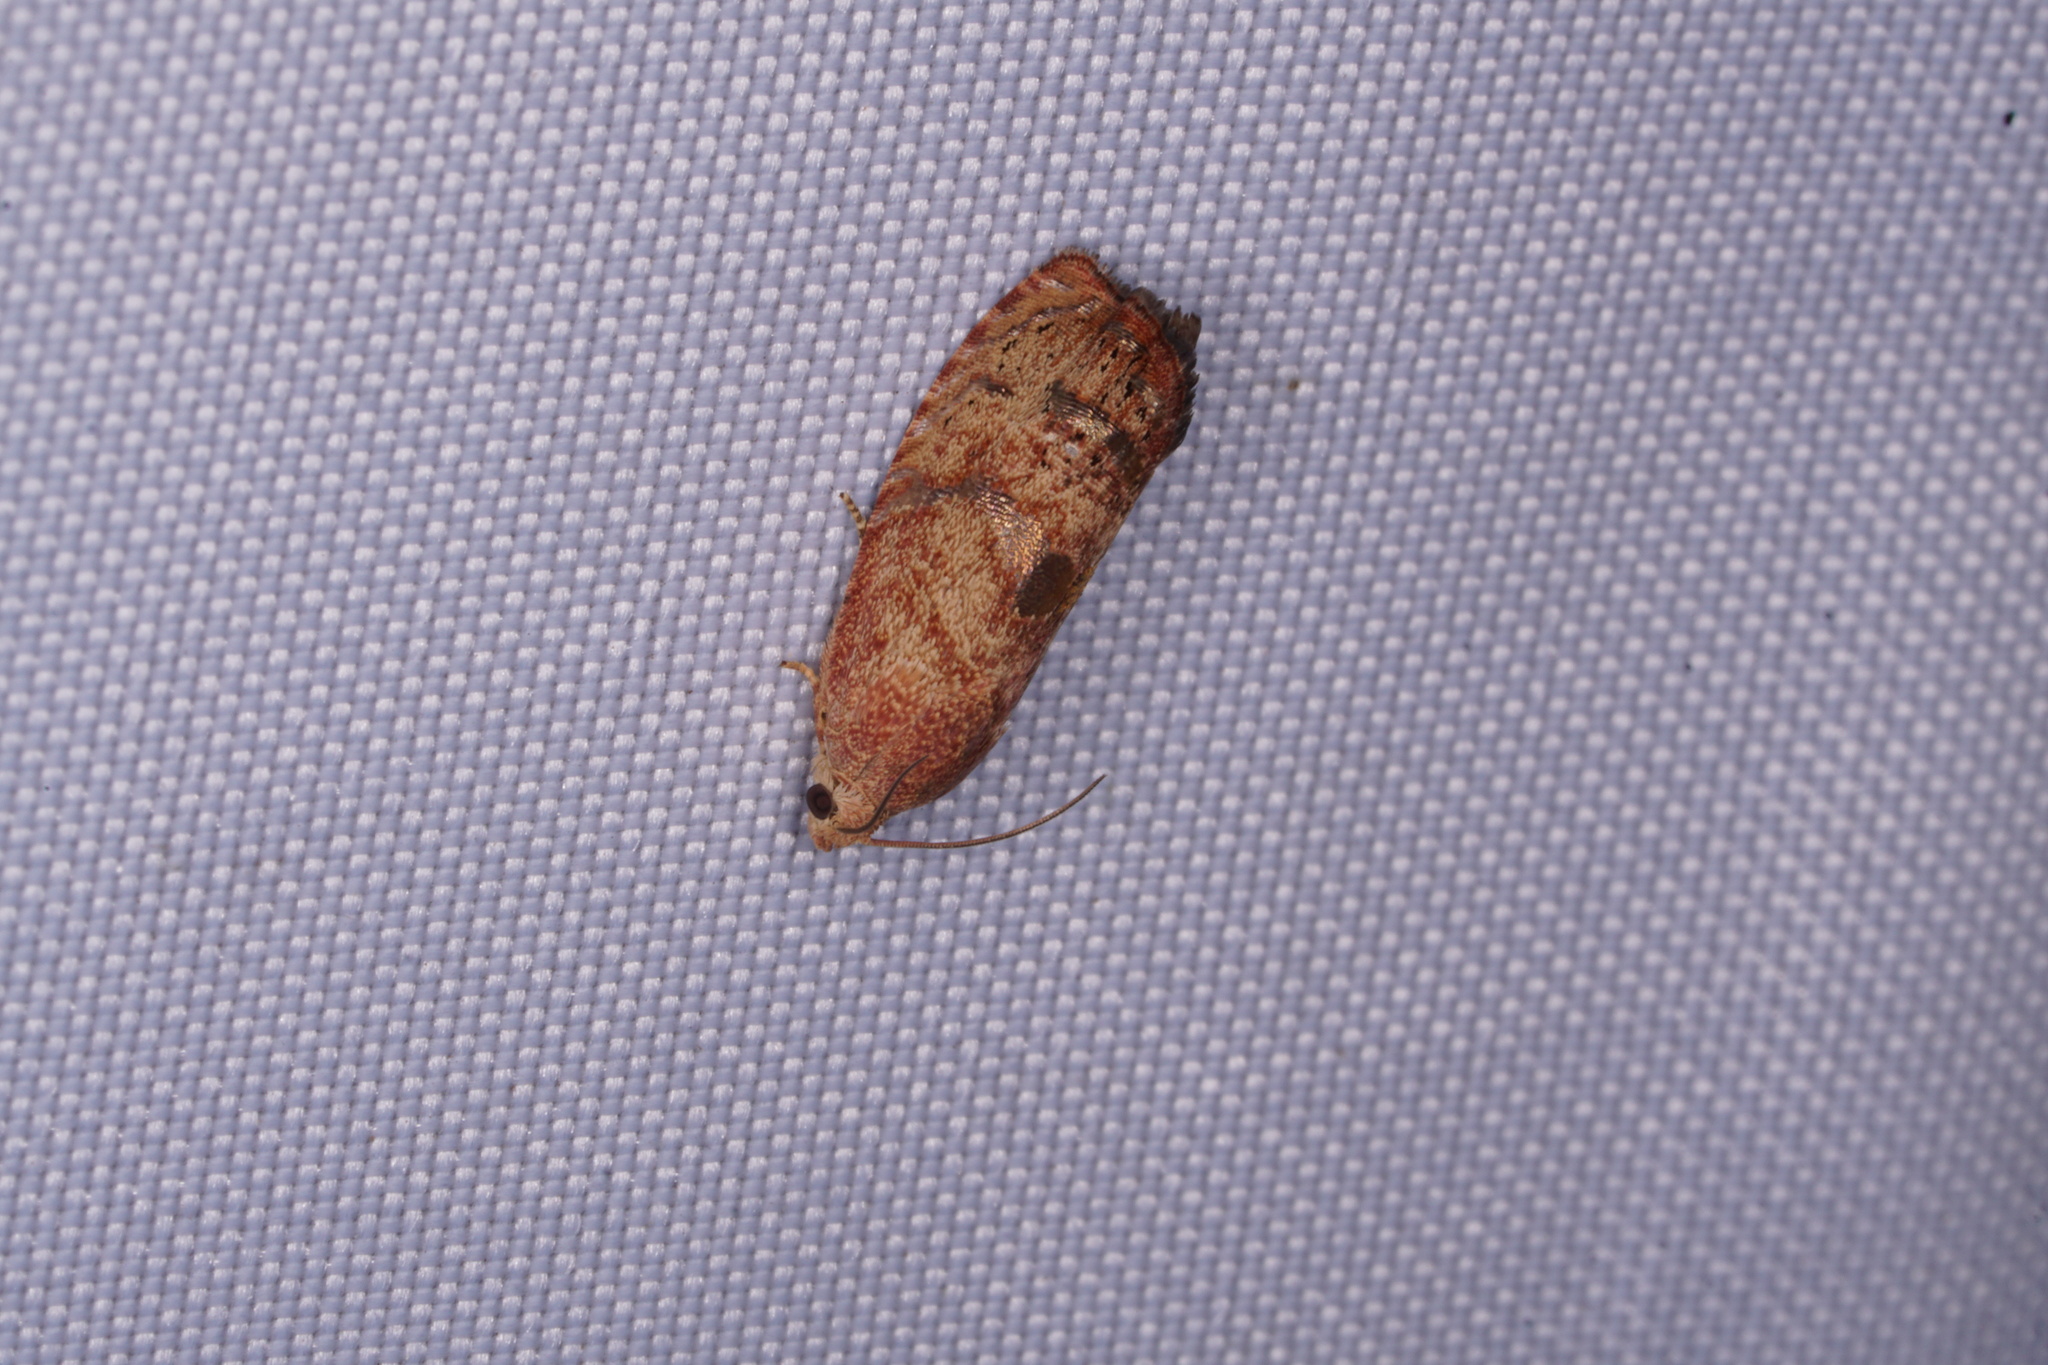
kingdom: Animalia
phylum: Arthropoda
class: Insecta
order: Lepidoptera
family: Tortricidae
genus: Cydia
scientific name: Cydia latiferreana
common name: Filbertworm moth
